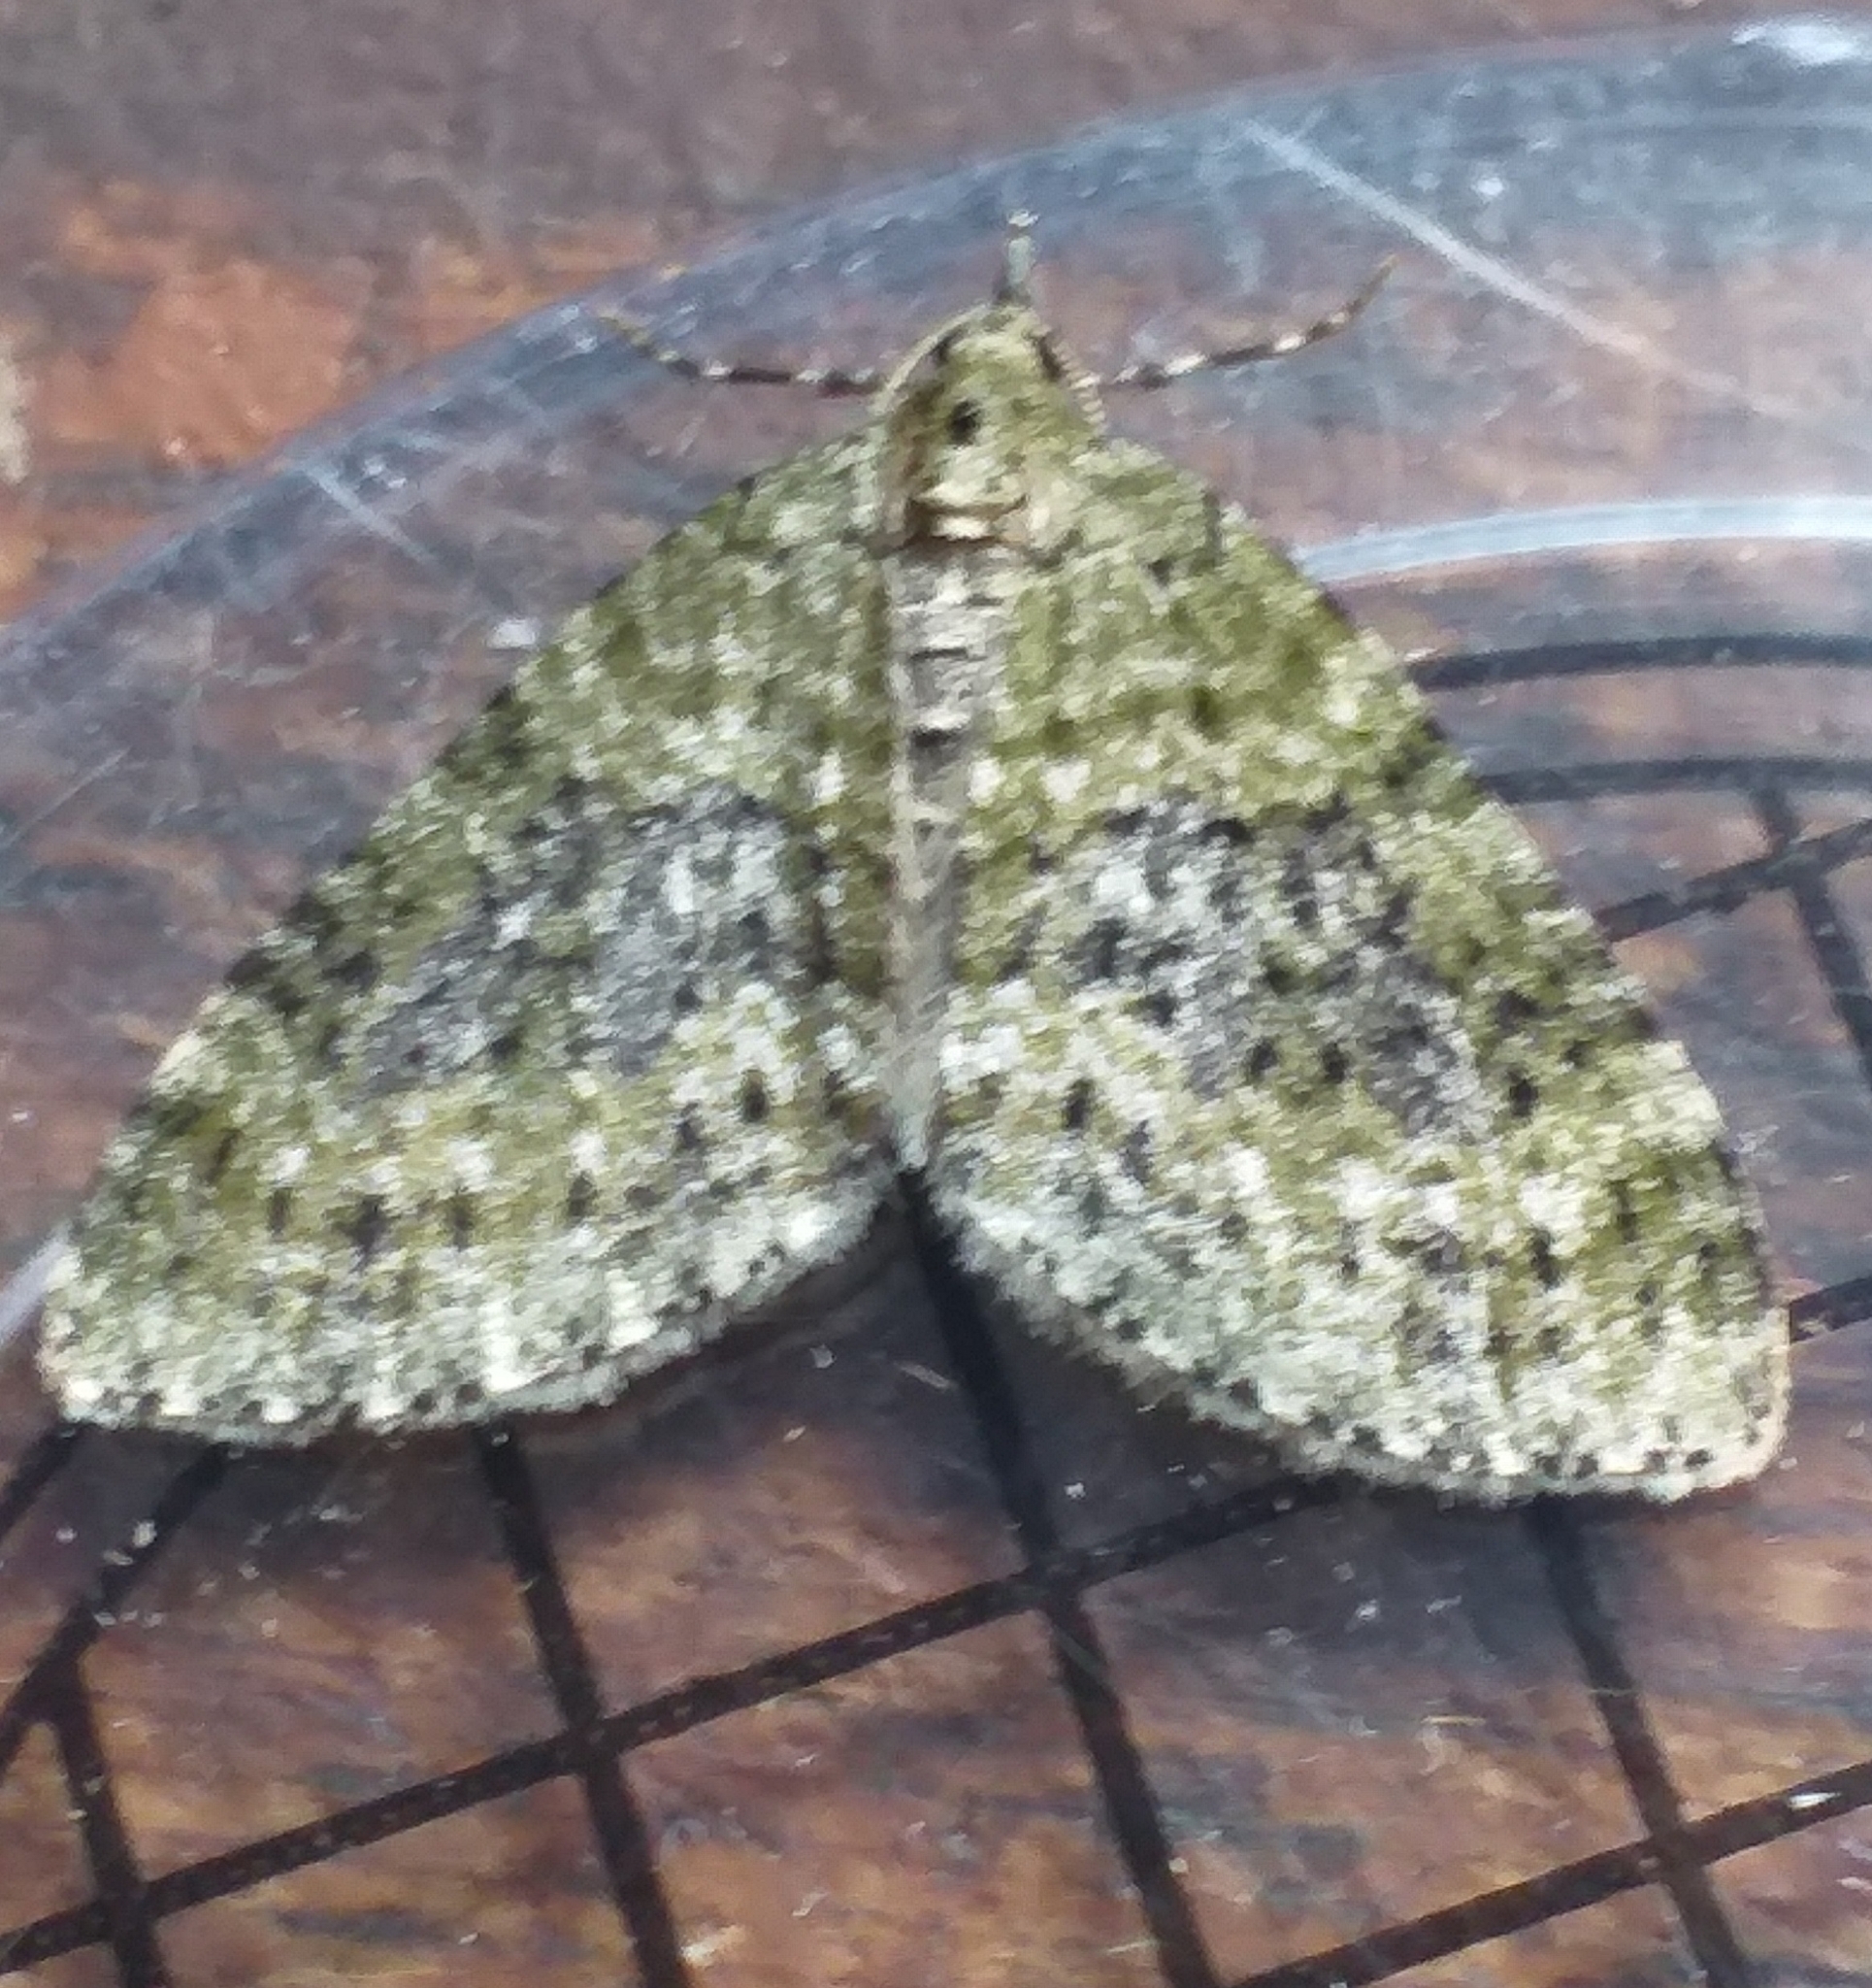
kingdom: Animalia
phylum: Arthropoda
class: Insecta
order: Lepidoptera
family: Geometridae
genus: Acasis
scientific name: Acasis viretata
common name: Yellow-barred brindle
